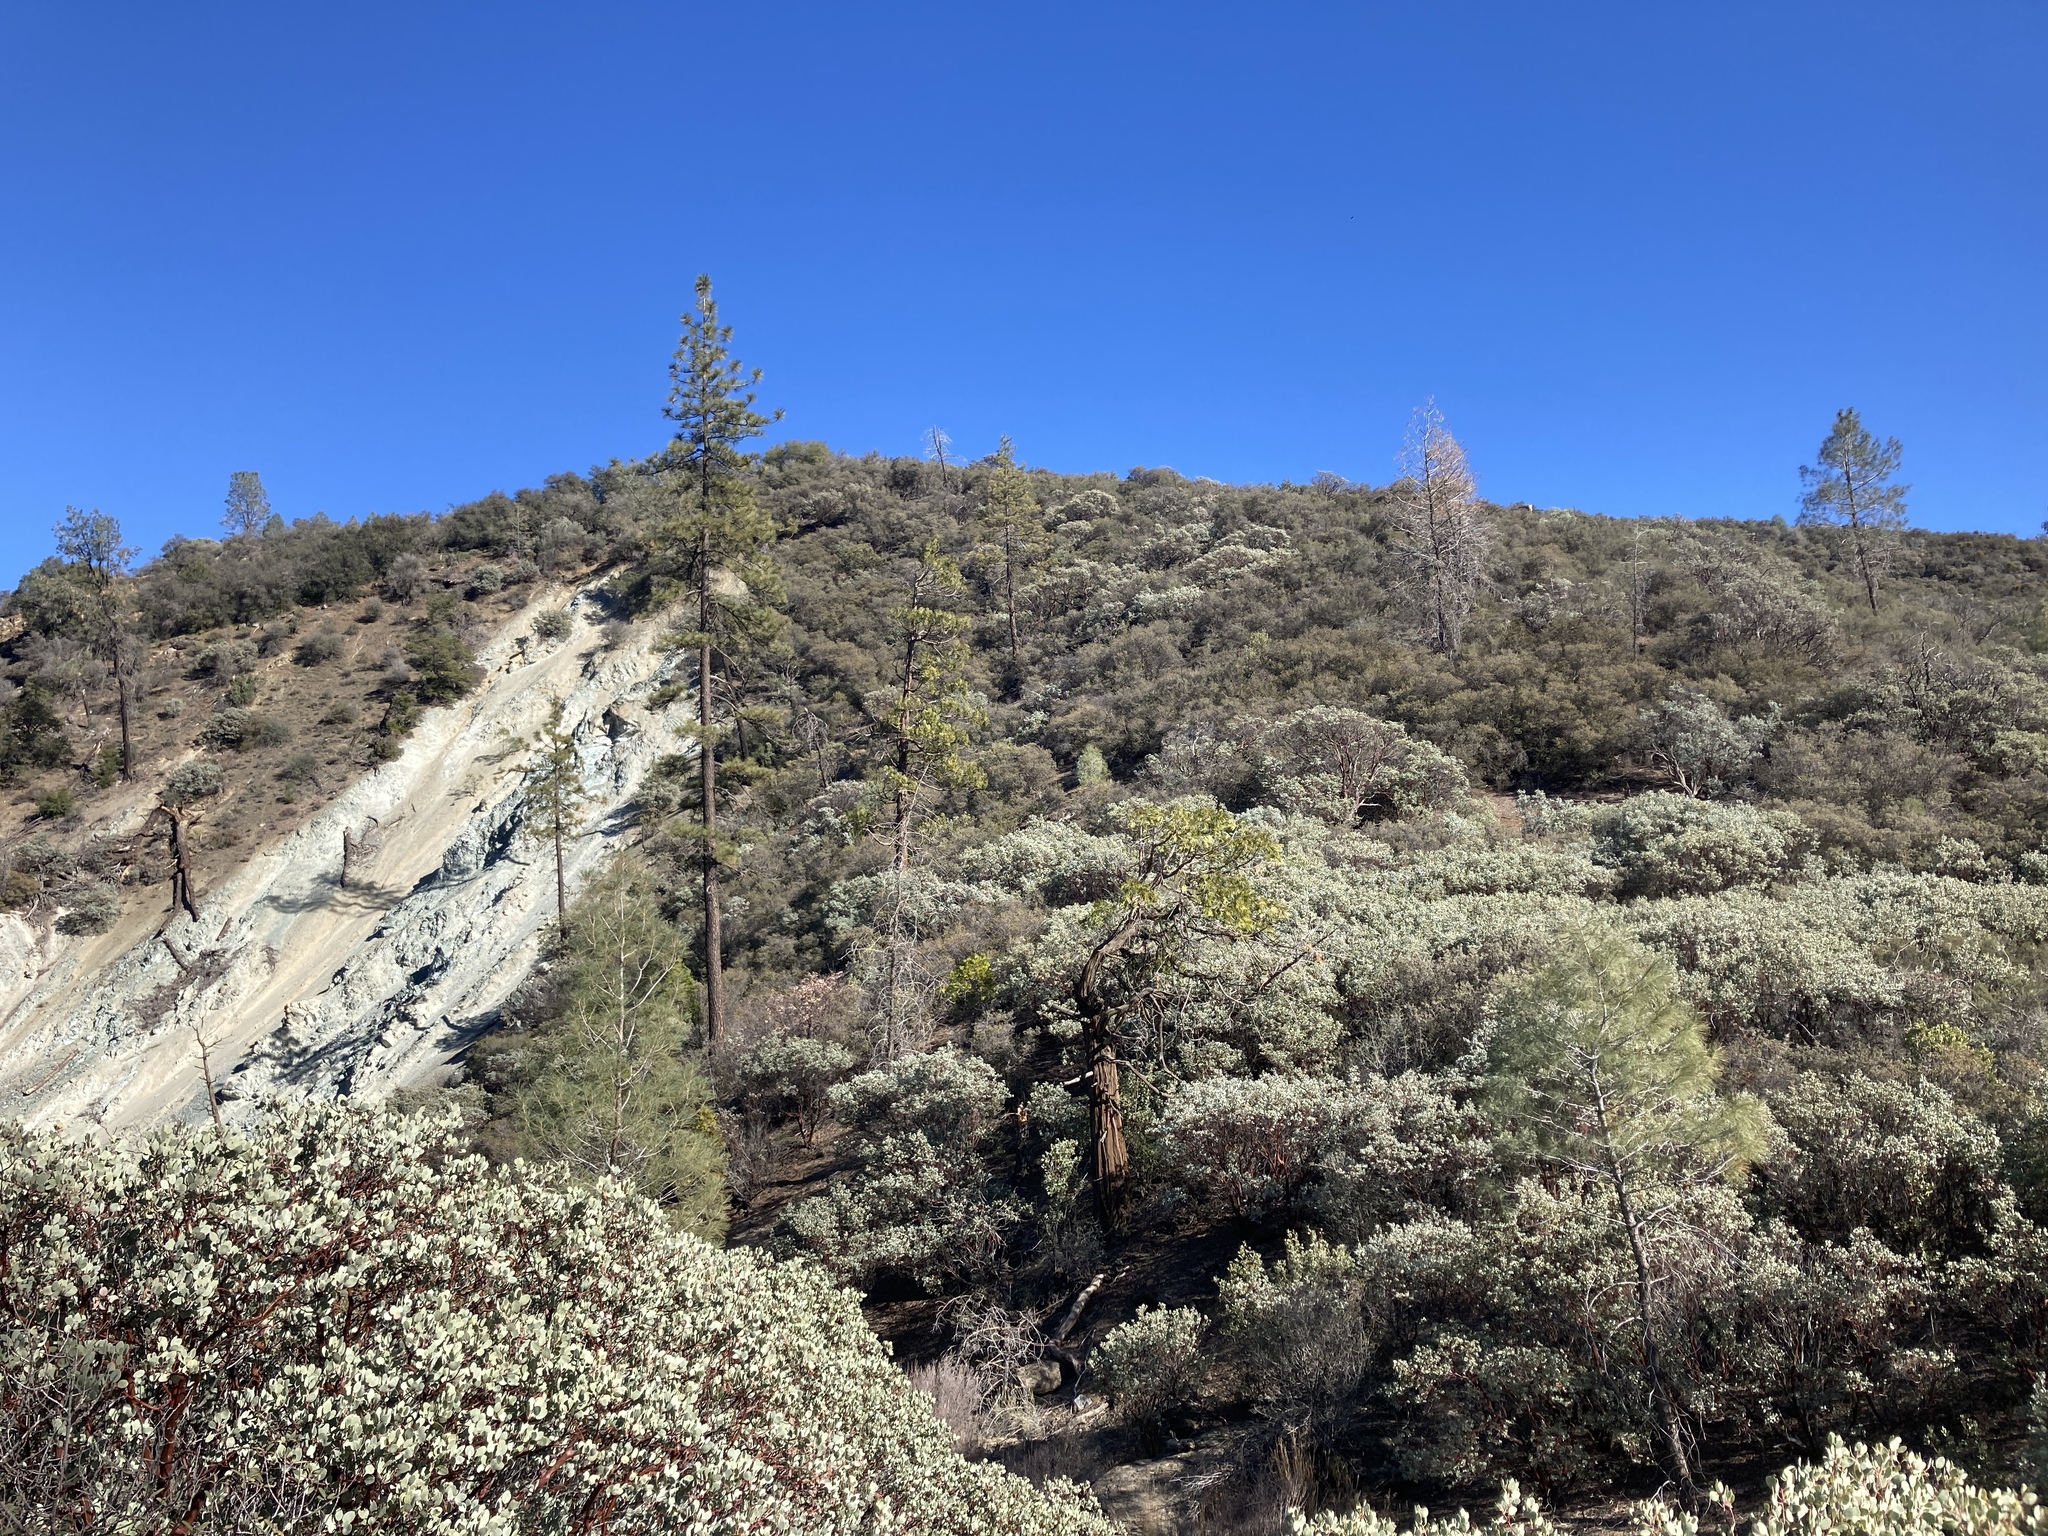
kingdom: Plantae
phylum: Tracheophyta
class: Magnoliopsida
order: Ericales
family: Ericaceae
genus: Arctostaphylos
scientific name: Arctostaphylos glauca
